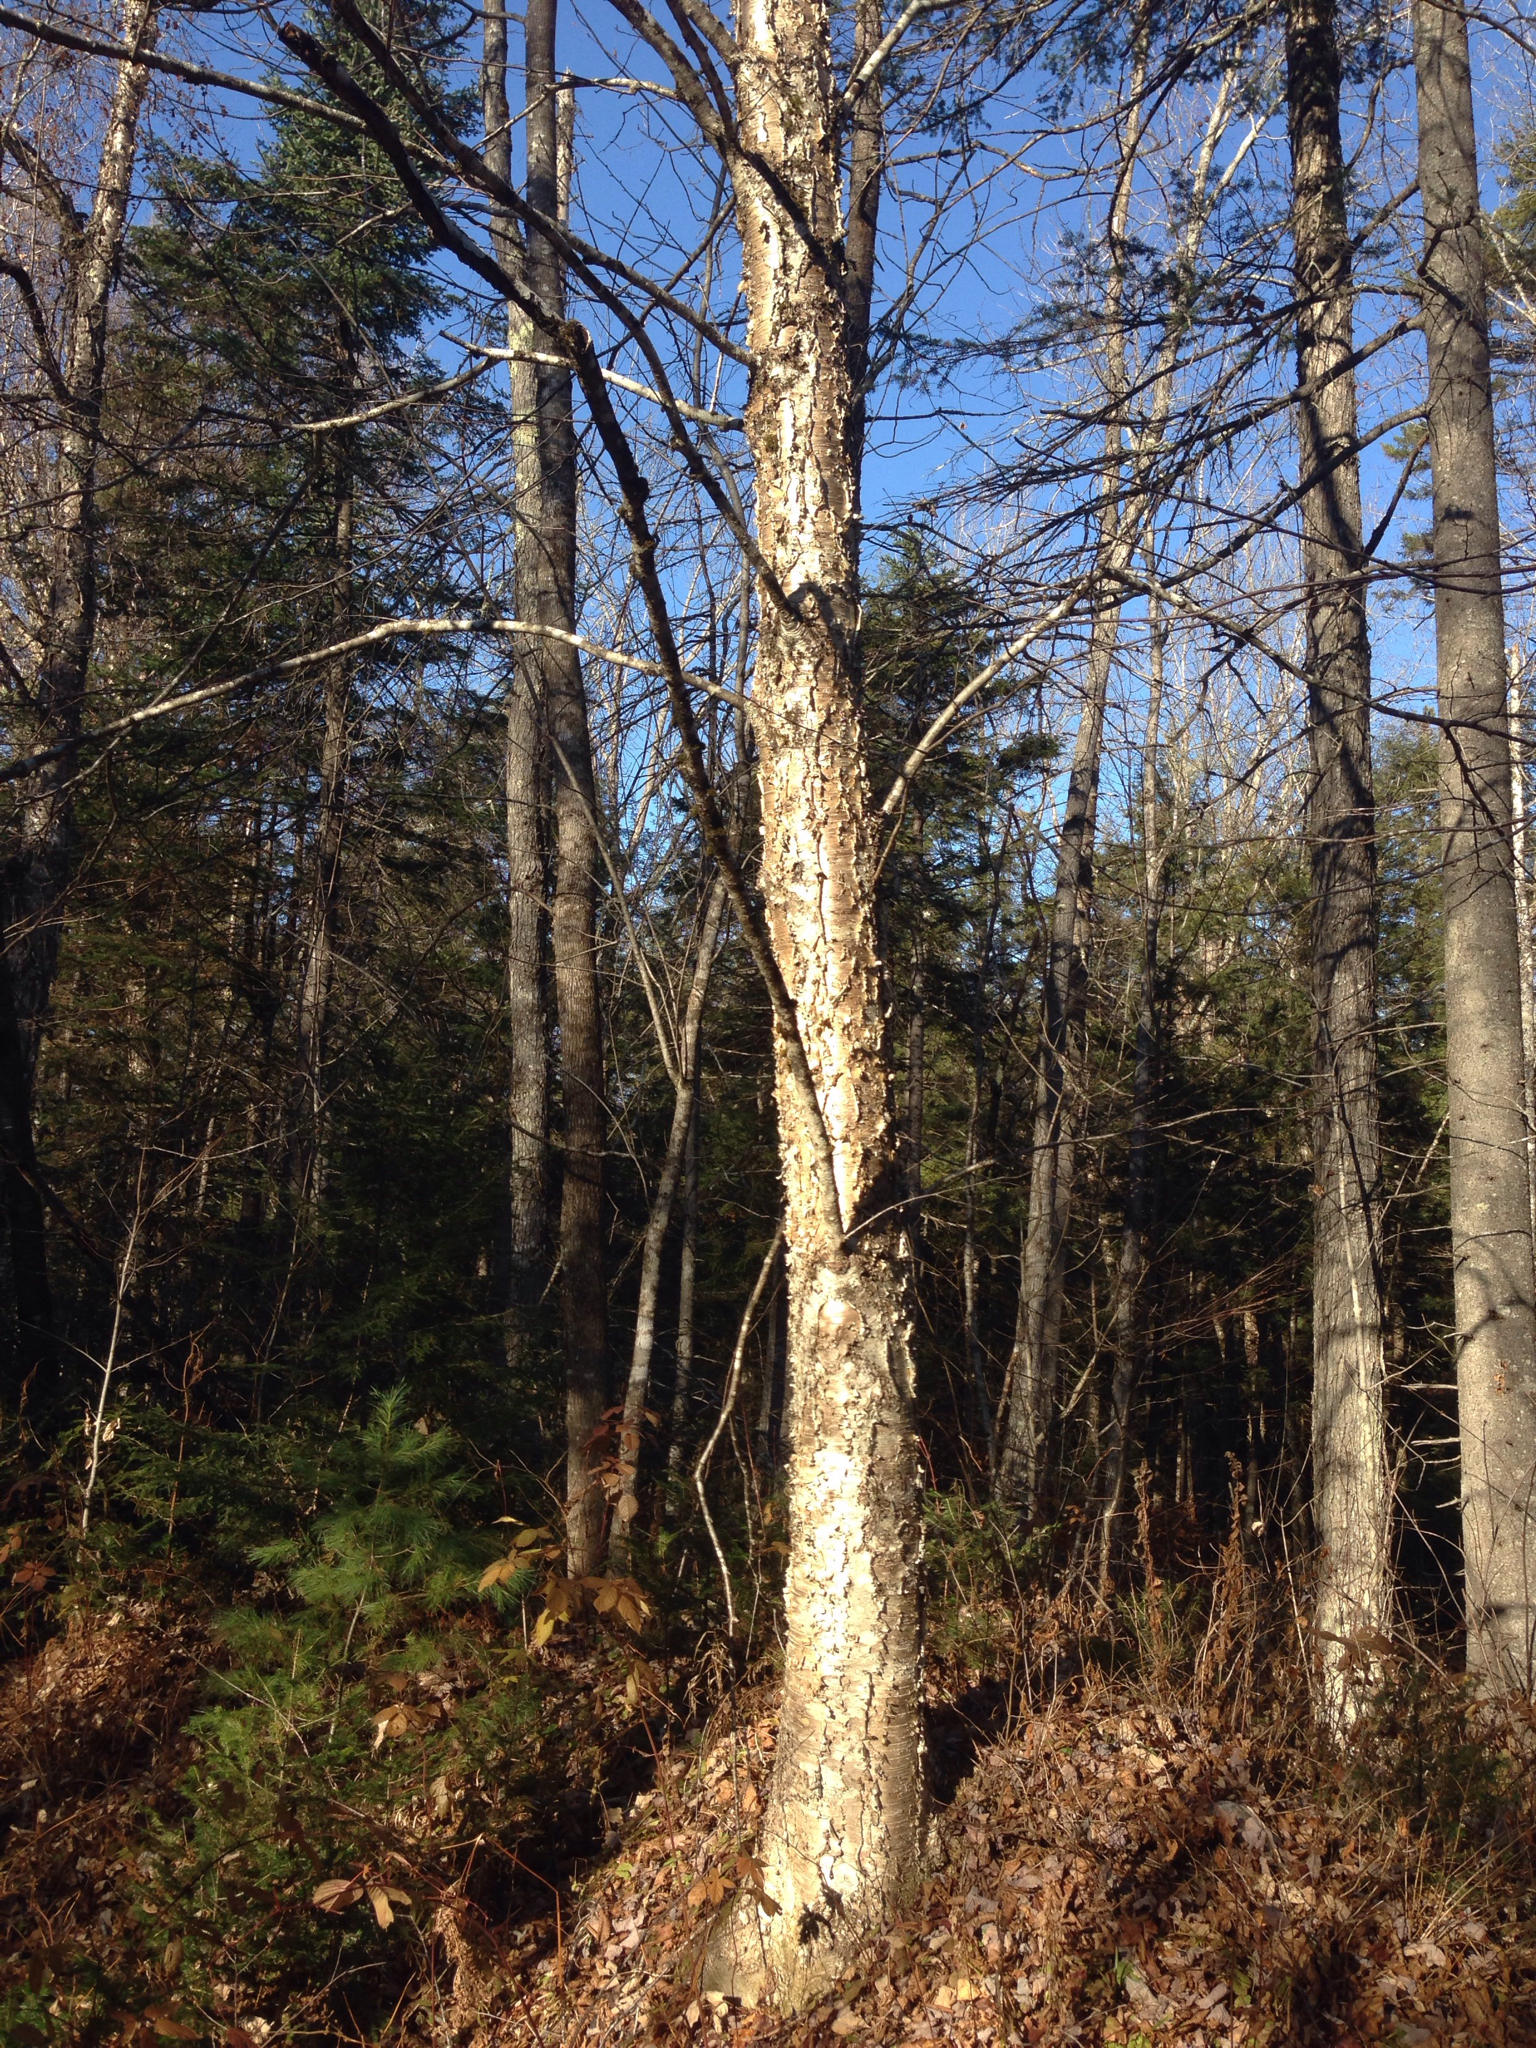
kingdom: Plantae
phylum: Tracheophyta
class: Magnoliopsida
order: Fagales
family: Betulaceae
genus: Betula
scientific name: Betula alleghaniensis
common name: Yellow birch
